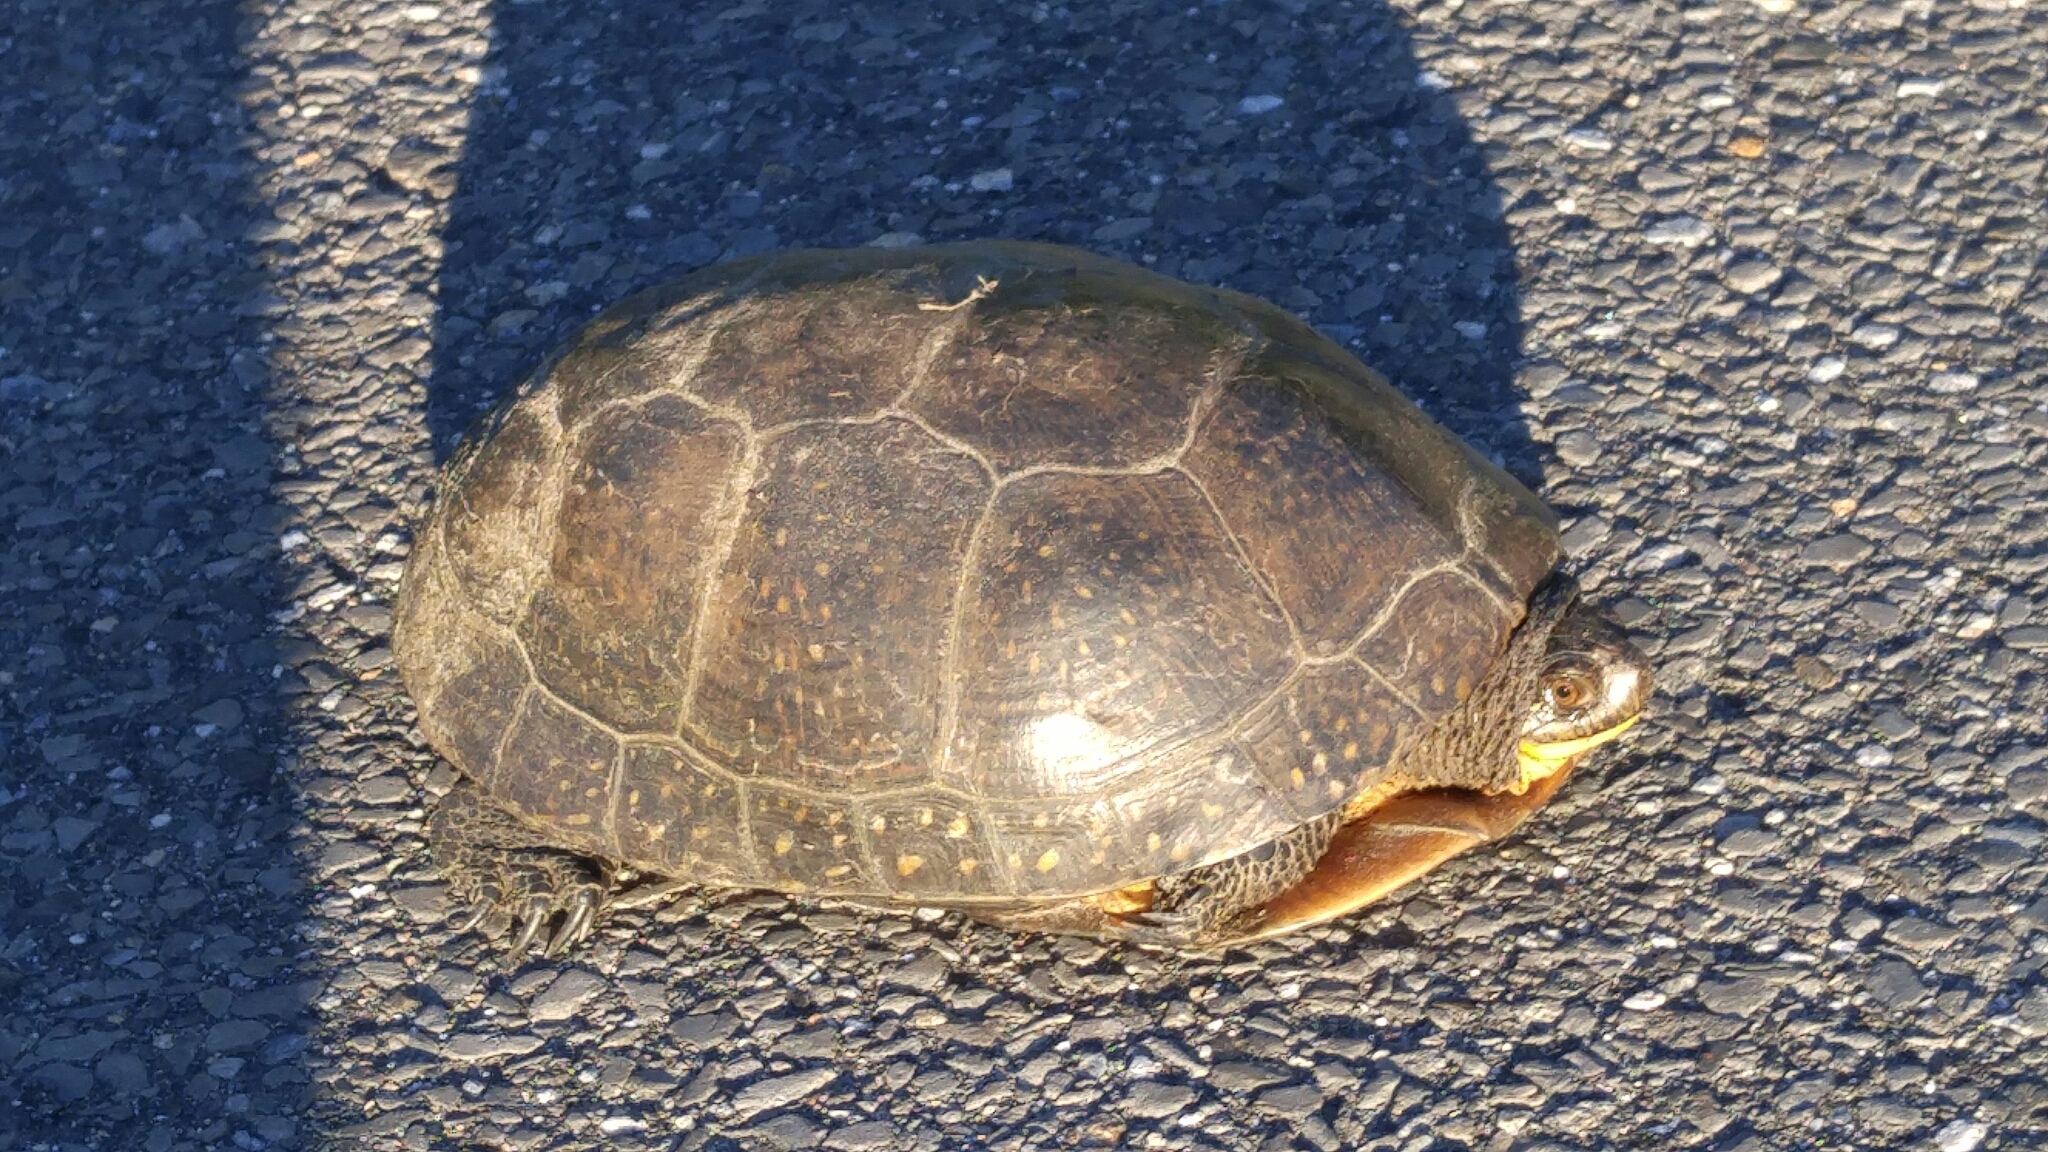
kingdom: Animalia
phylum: Chordata
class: Testudines
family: Emydidae
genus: Emys
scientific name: Emys blandingii
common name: Blanding's turtle
